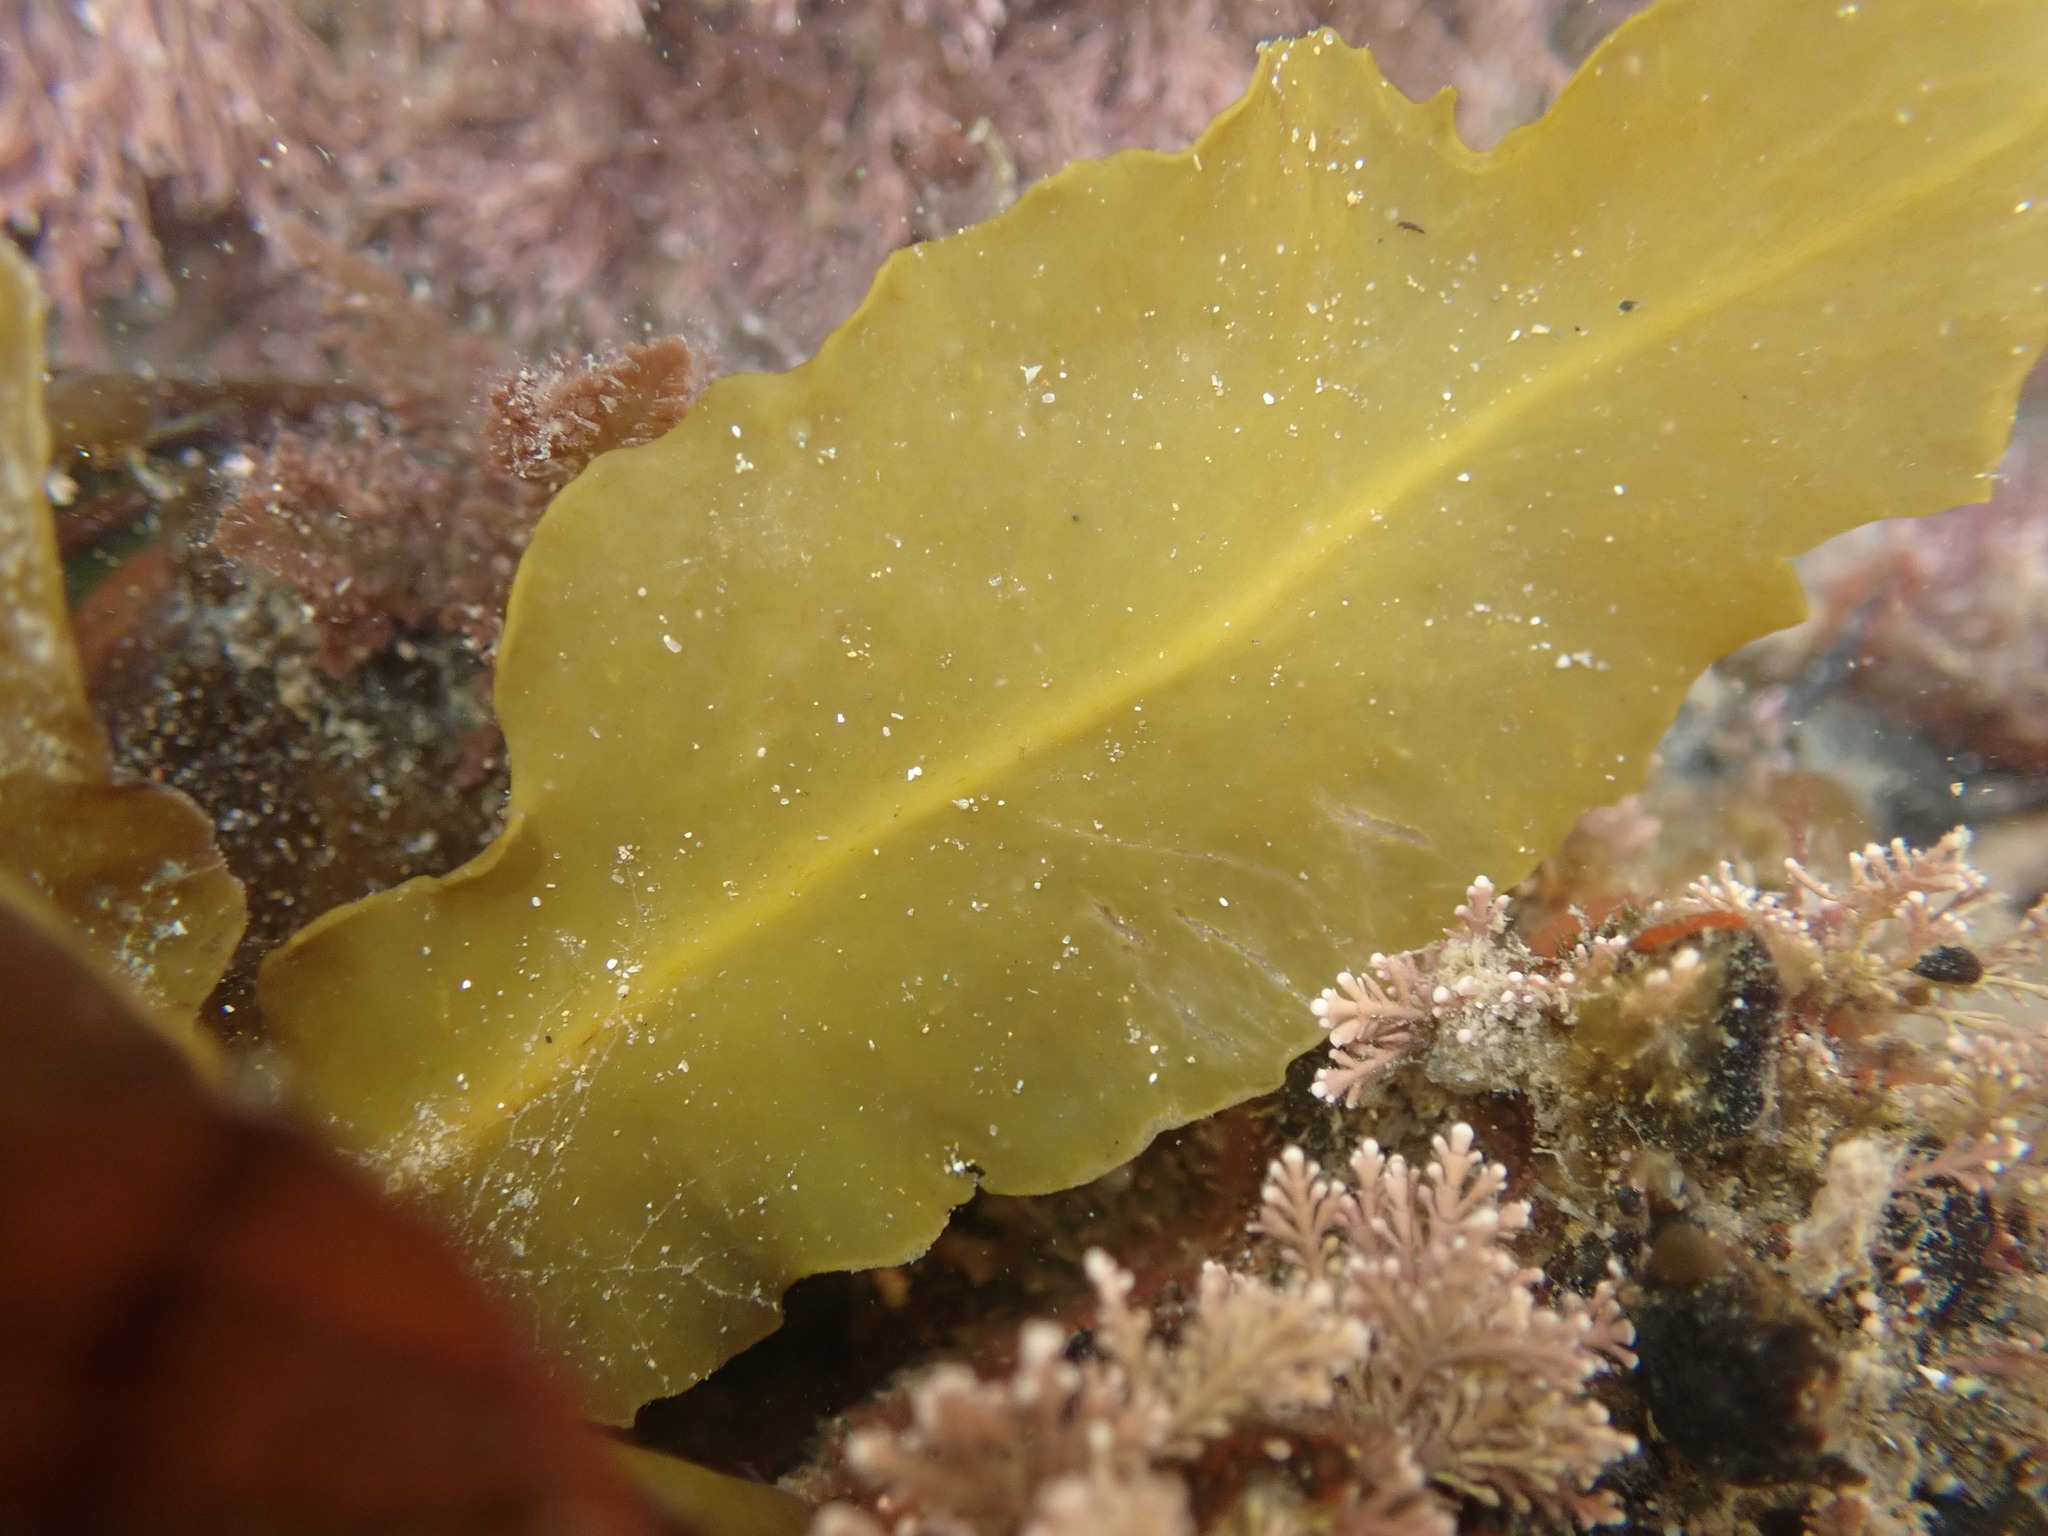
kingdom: Chromista
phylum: Ochrophyta
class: Phaeophyceae
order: Fucales
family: Sargassaceae
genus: Sargassum
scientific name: Sargassum sinclairii
